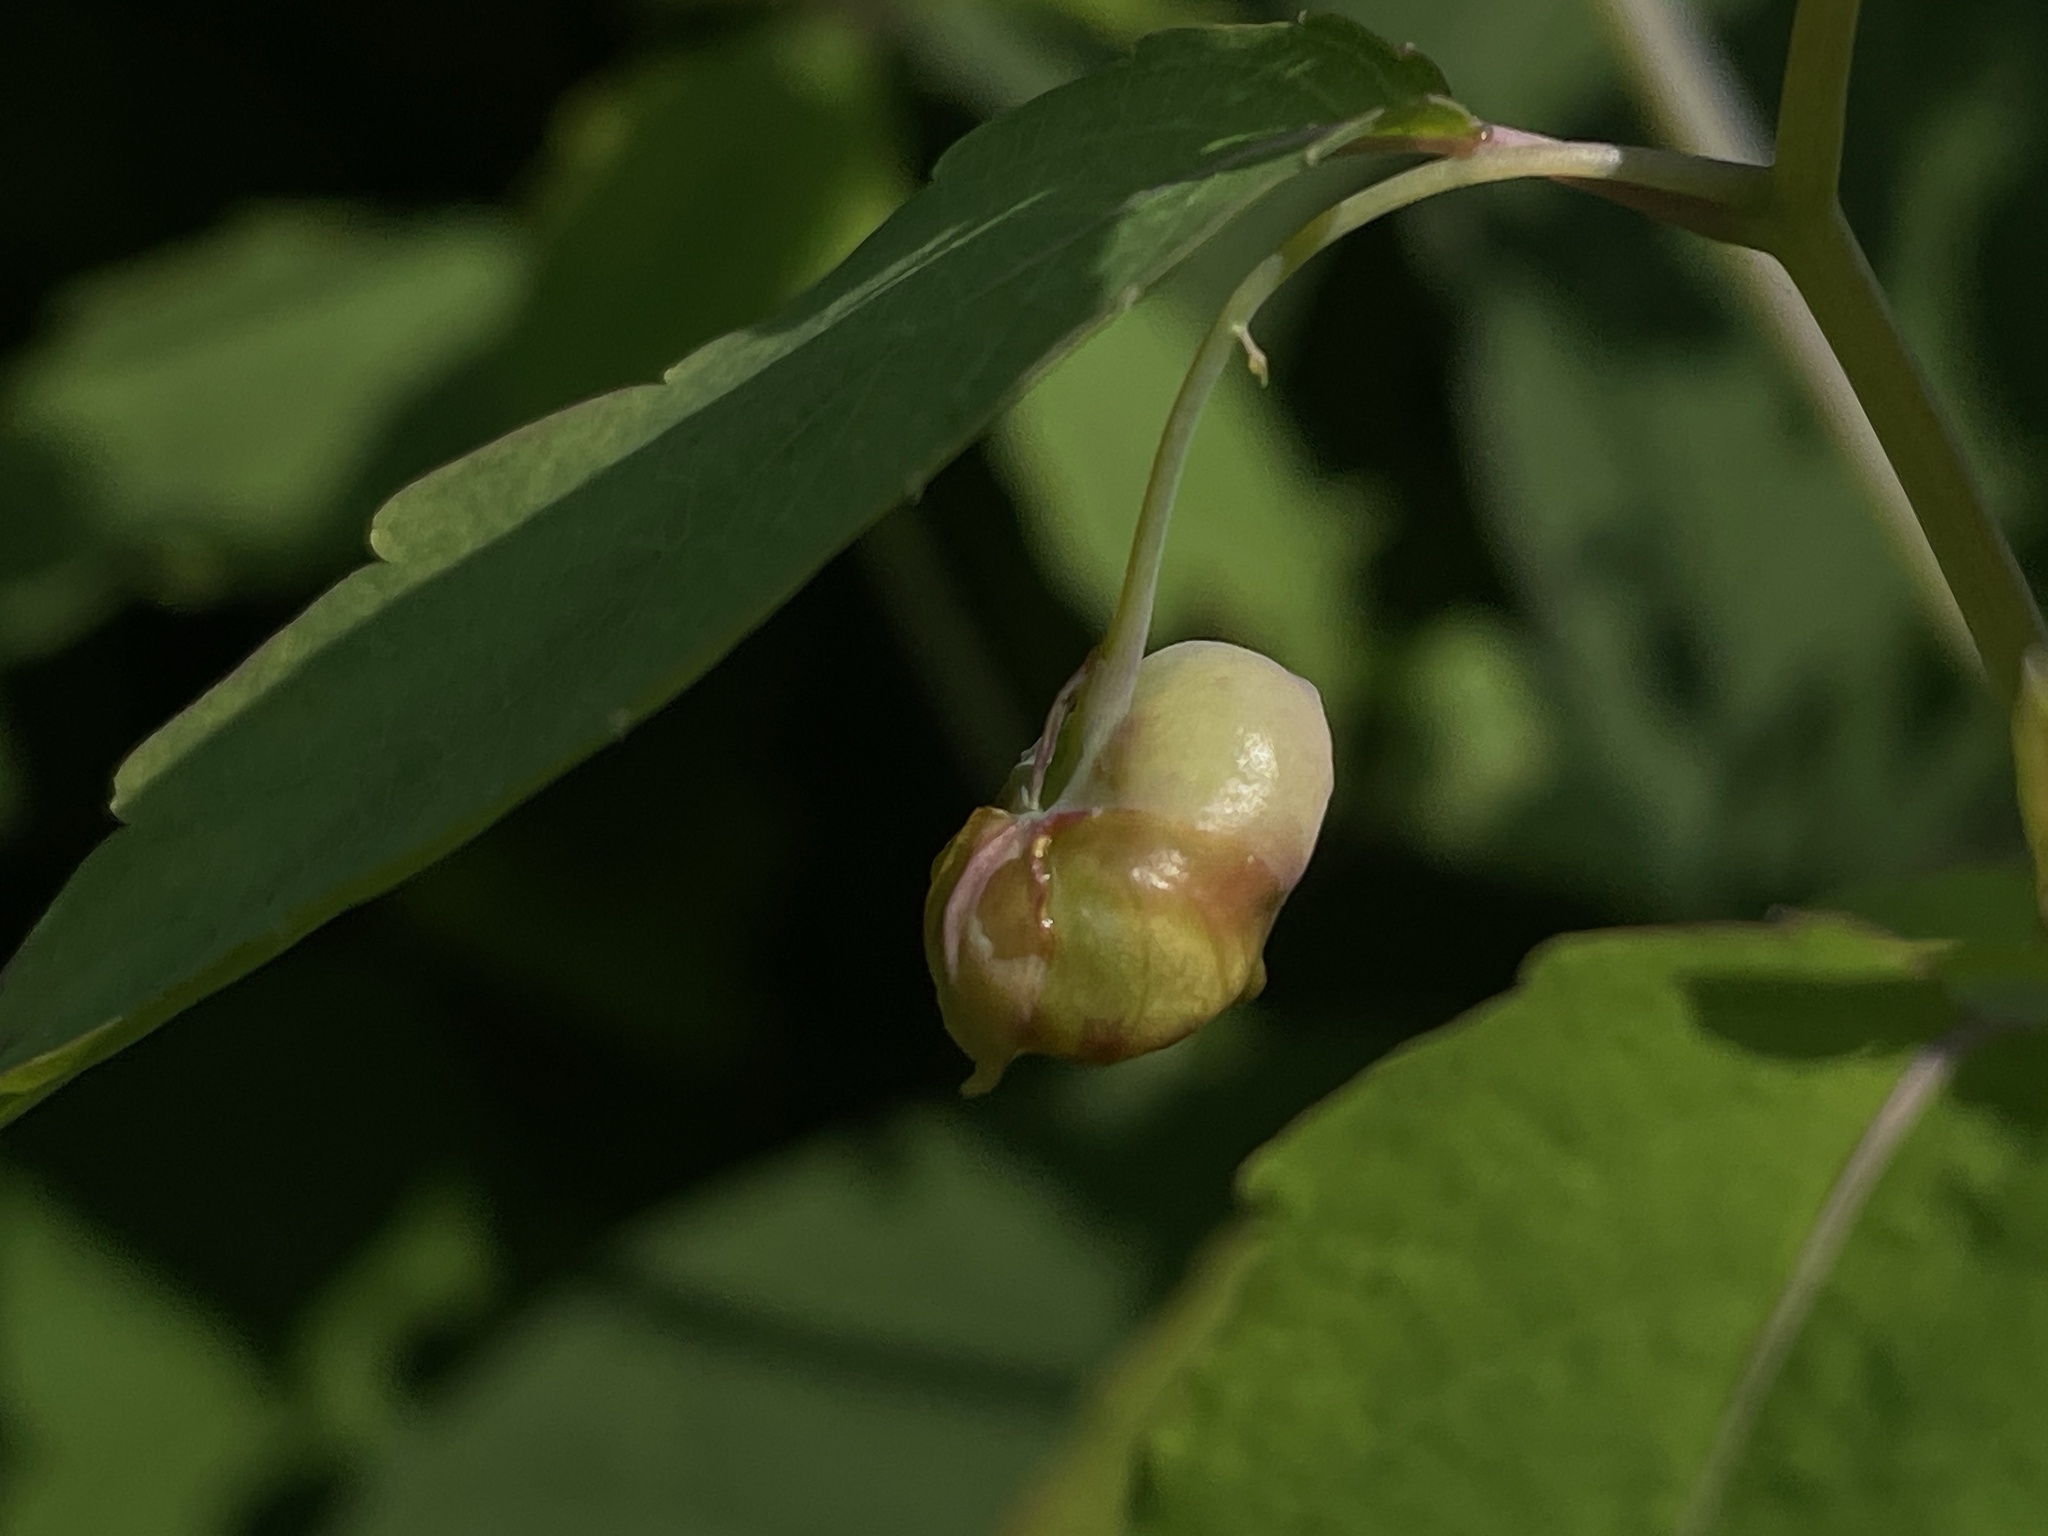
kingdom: Animalia
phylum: Arthropoda
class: Insecta
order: Diptera
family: Cecidomyiidae
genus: Schizomyia
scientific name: Schizomyia impatientis
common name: Jewelweed gall midge
